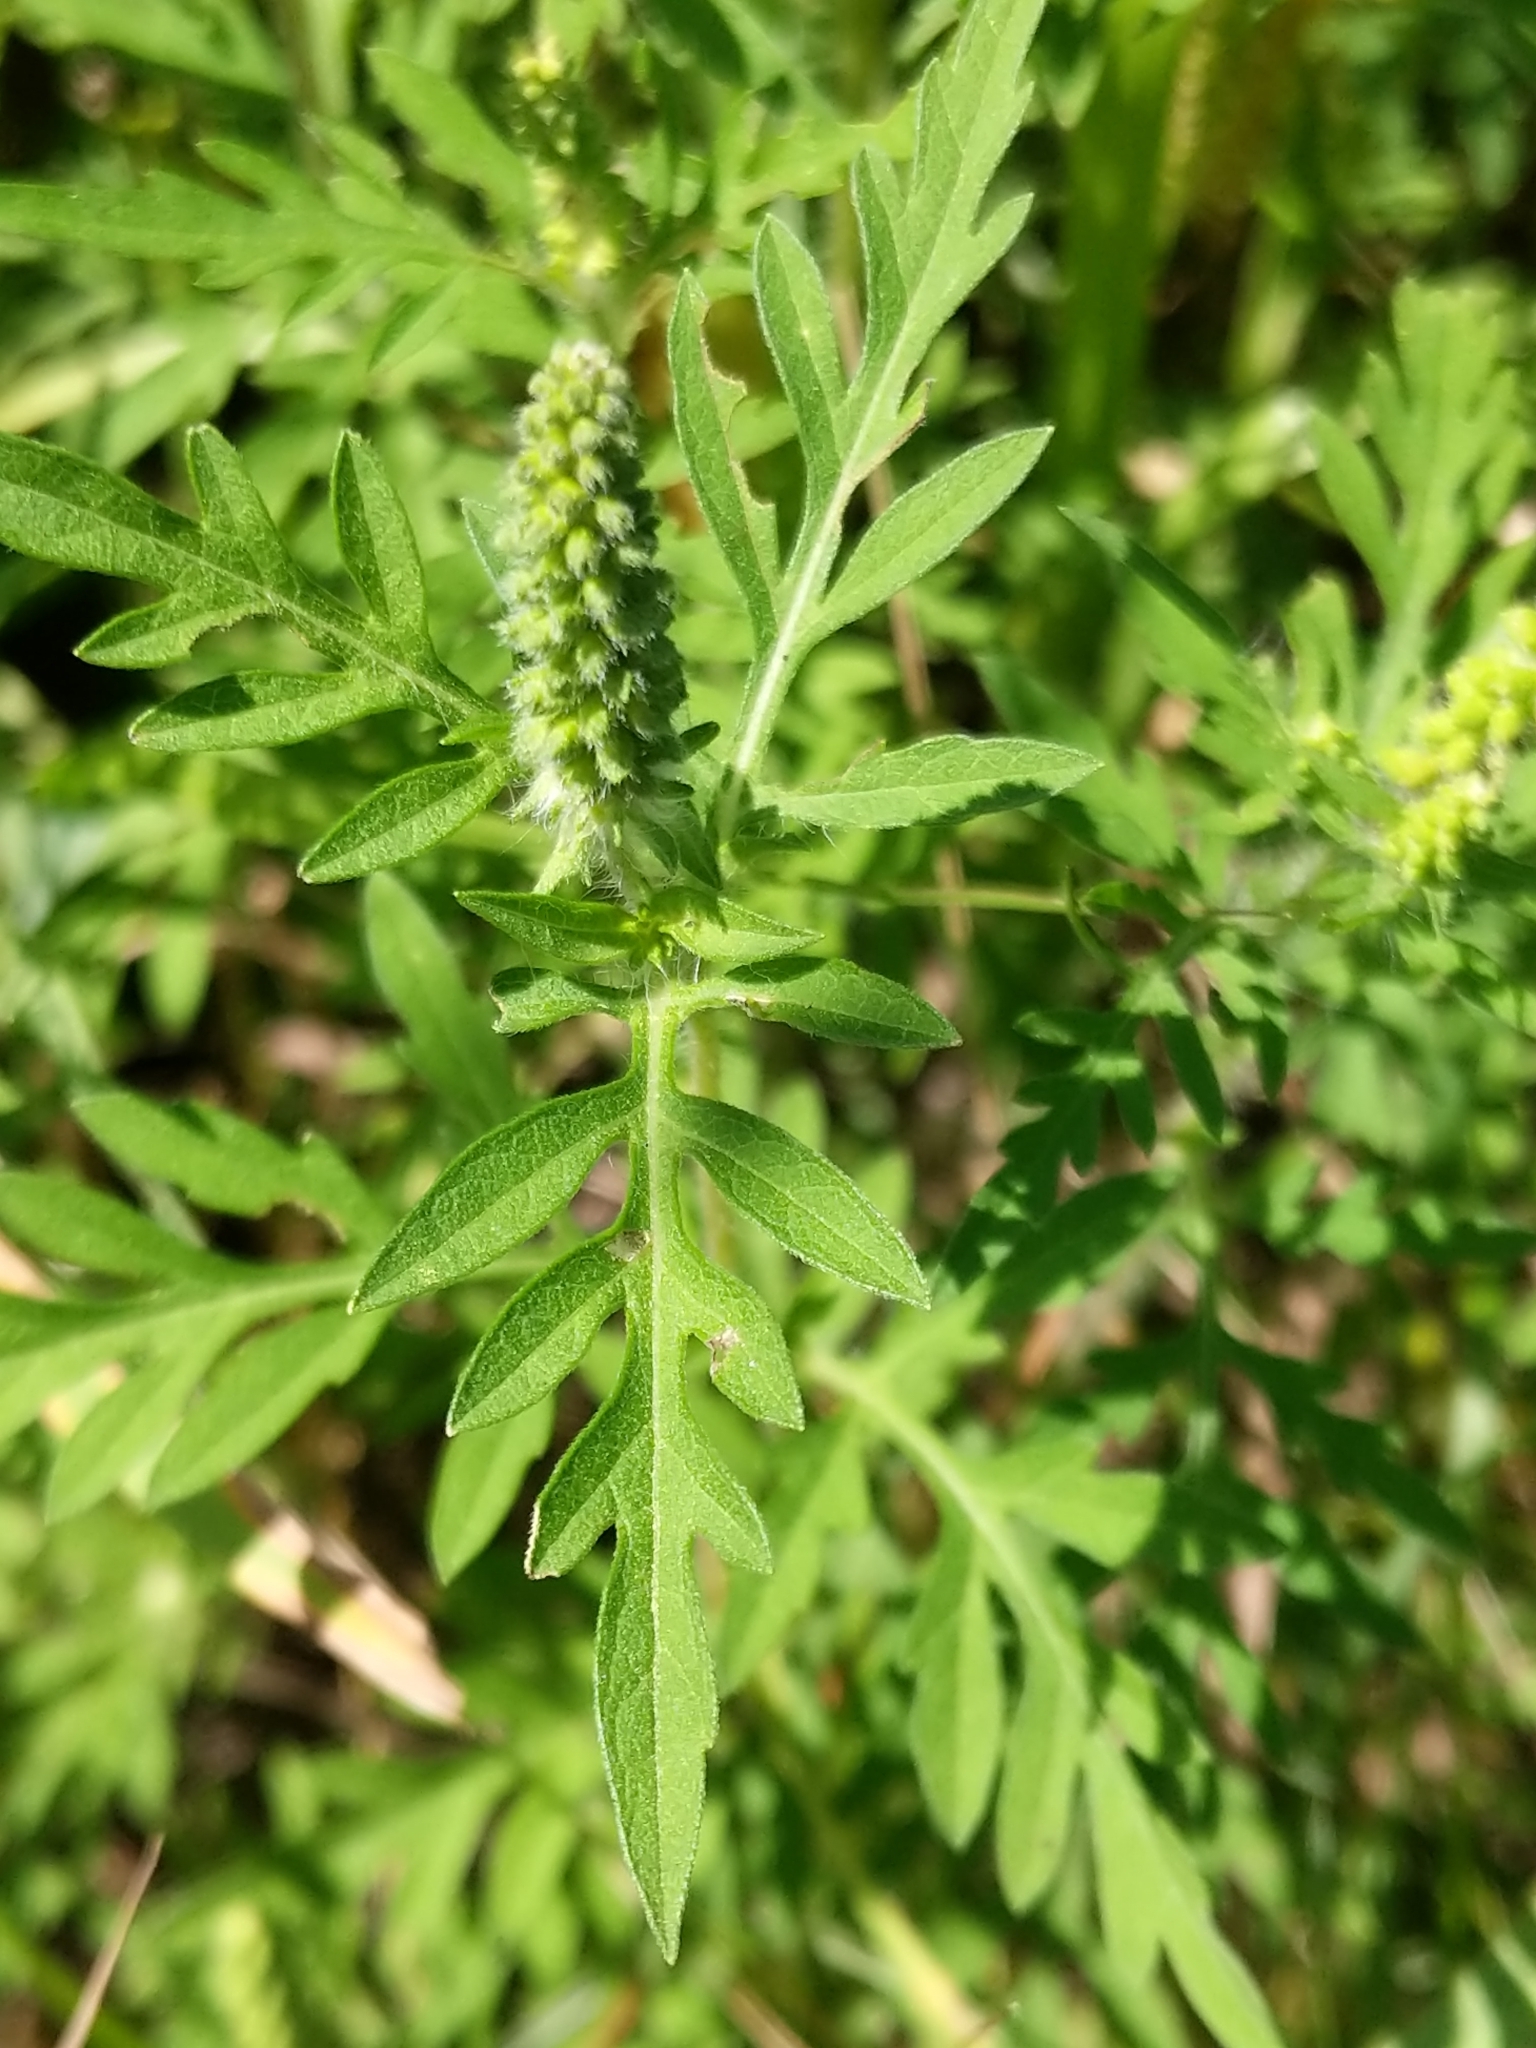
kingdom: Plantae
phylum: Tracheophyta
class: Magnoliopsida
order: Asterales
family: Asteraceae
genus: Ambrosia
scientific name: Ambrosia artemisiifolia
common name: Annual ragweed
